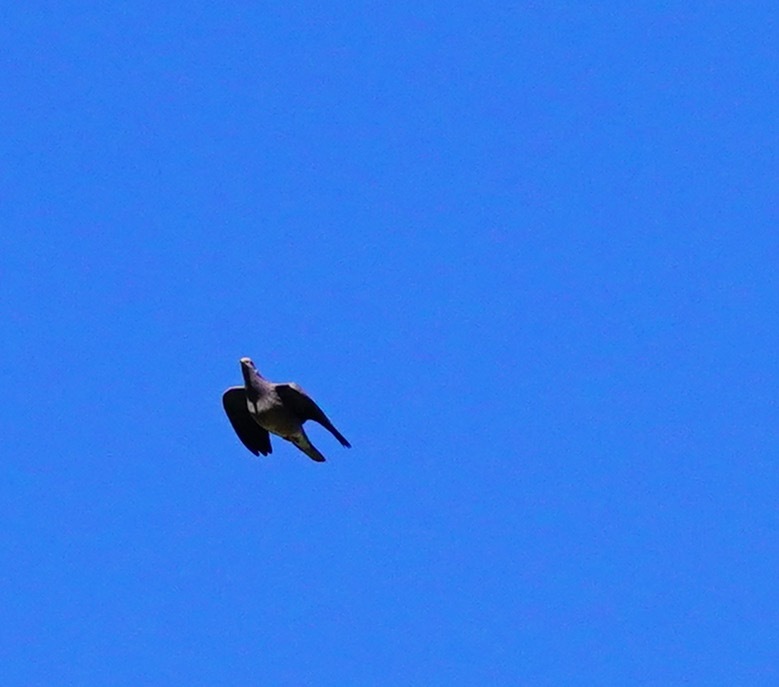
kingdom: Animalia
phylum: Chordata
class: Aves
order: Columbiformes
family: Columbidae
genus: Patagioenas
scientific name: Patagioenas fasciata
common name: Band-tailed pigeon
